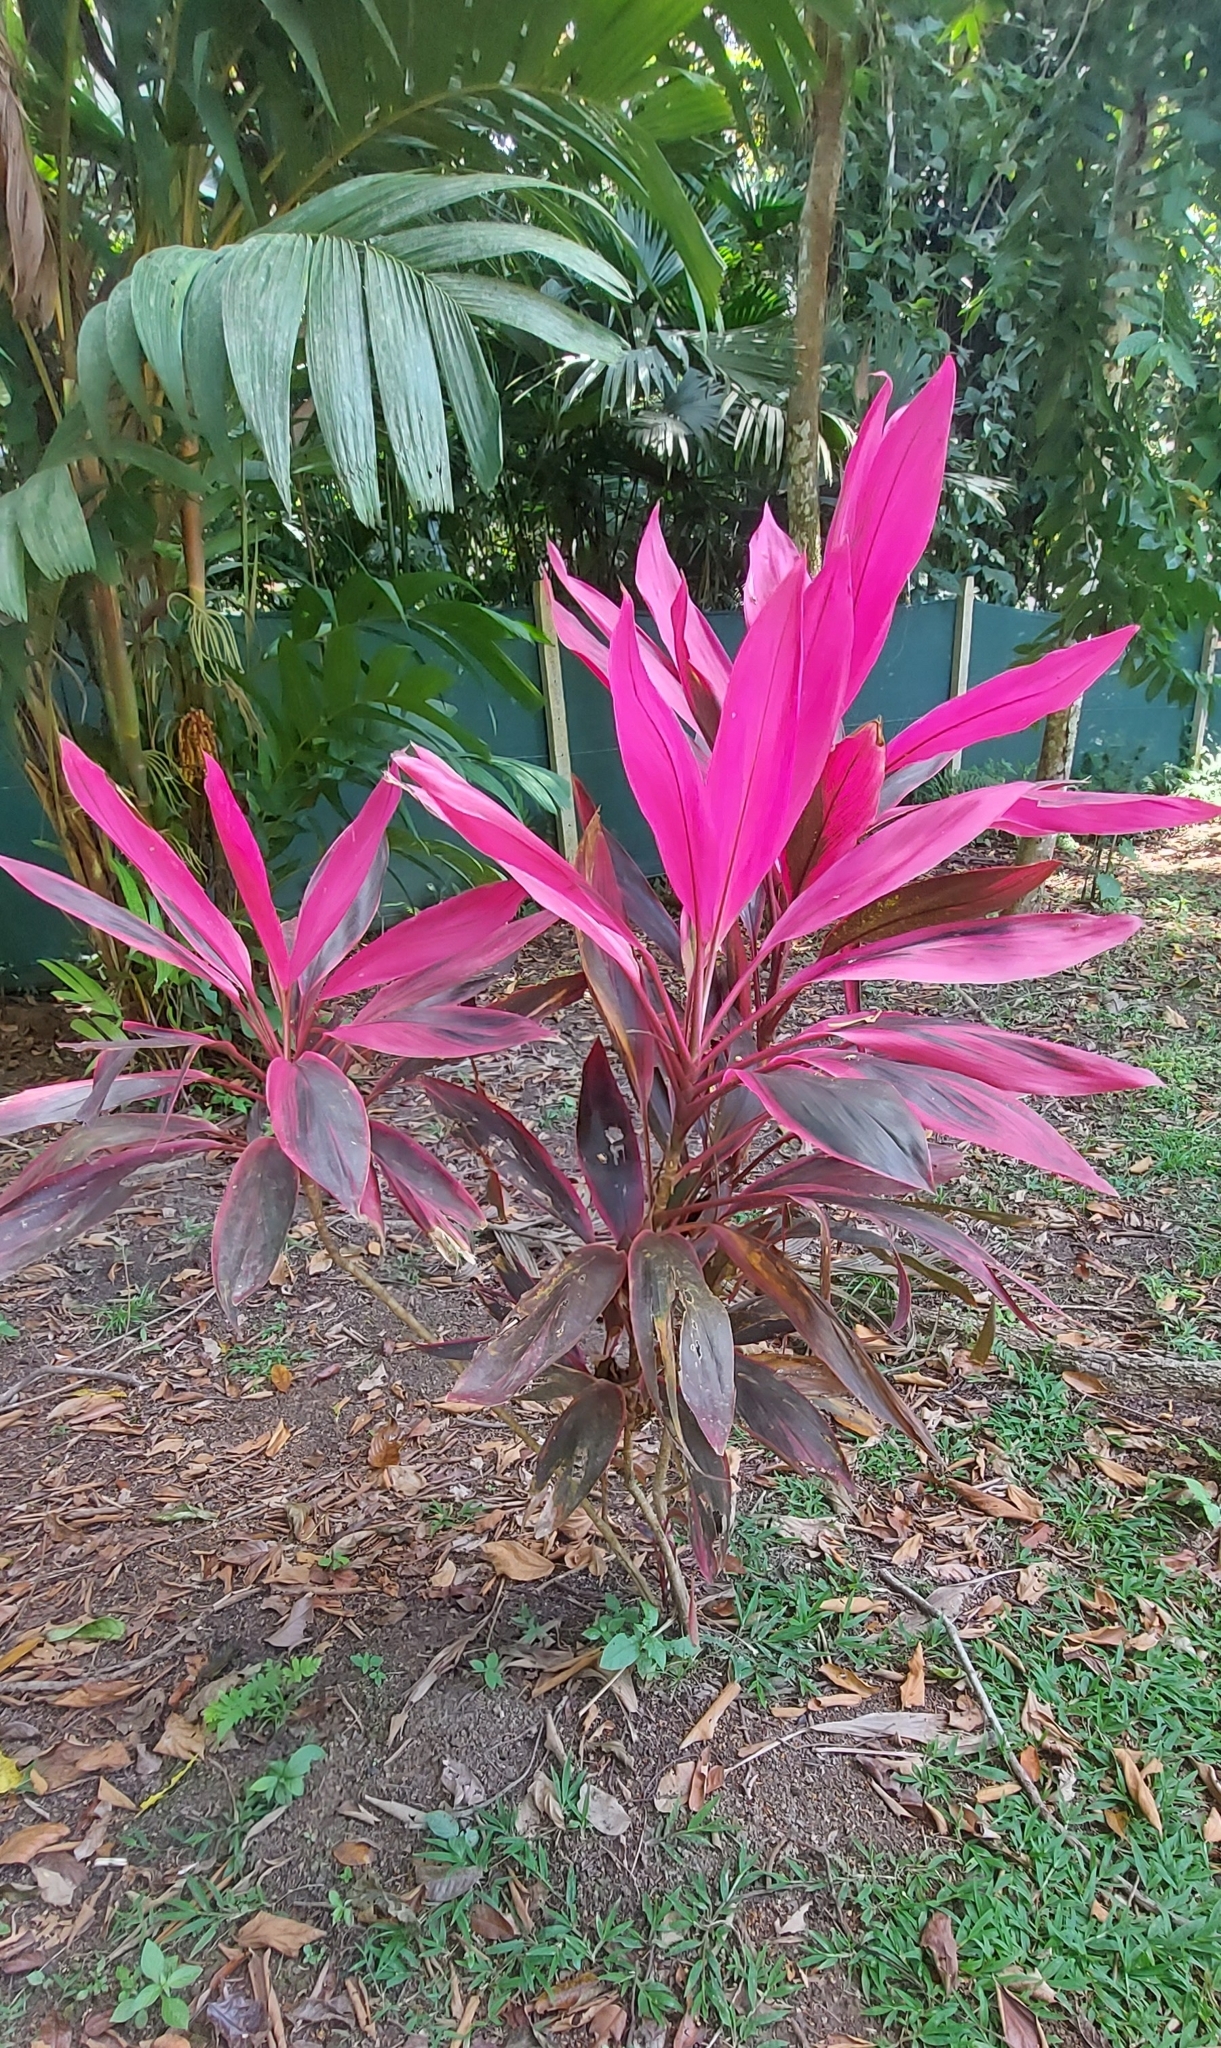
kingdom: Plantae
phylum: Tracheophyta
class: Liliopsida
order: Asparagales
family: Asparagaceae
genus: Cordyline
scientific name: Cordyline fruticosa
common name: Good-luck-plant
